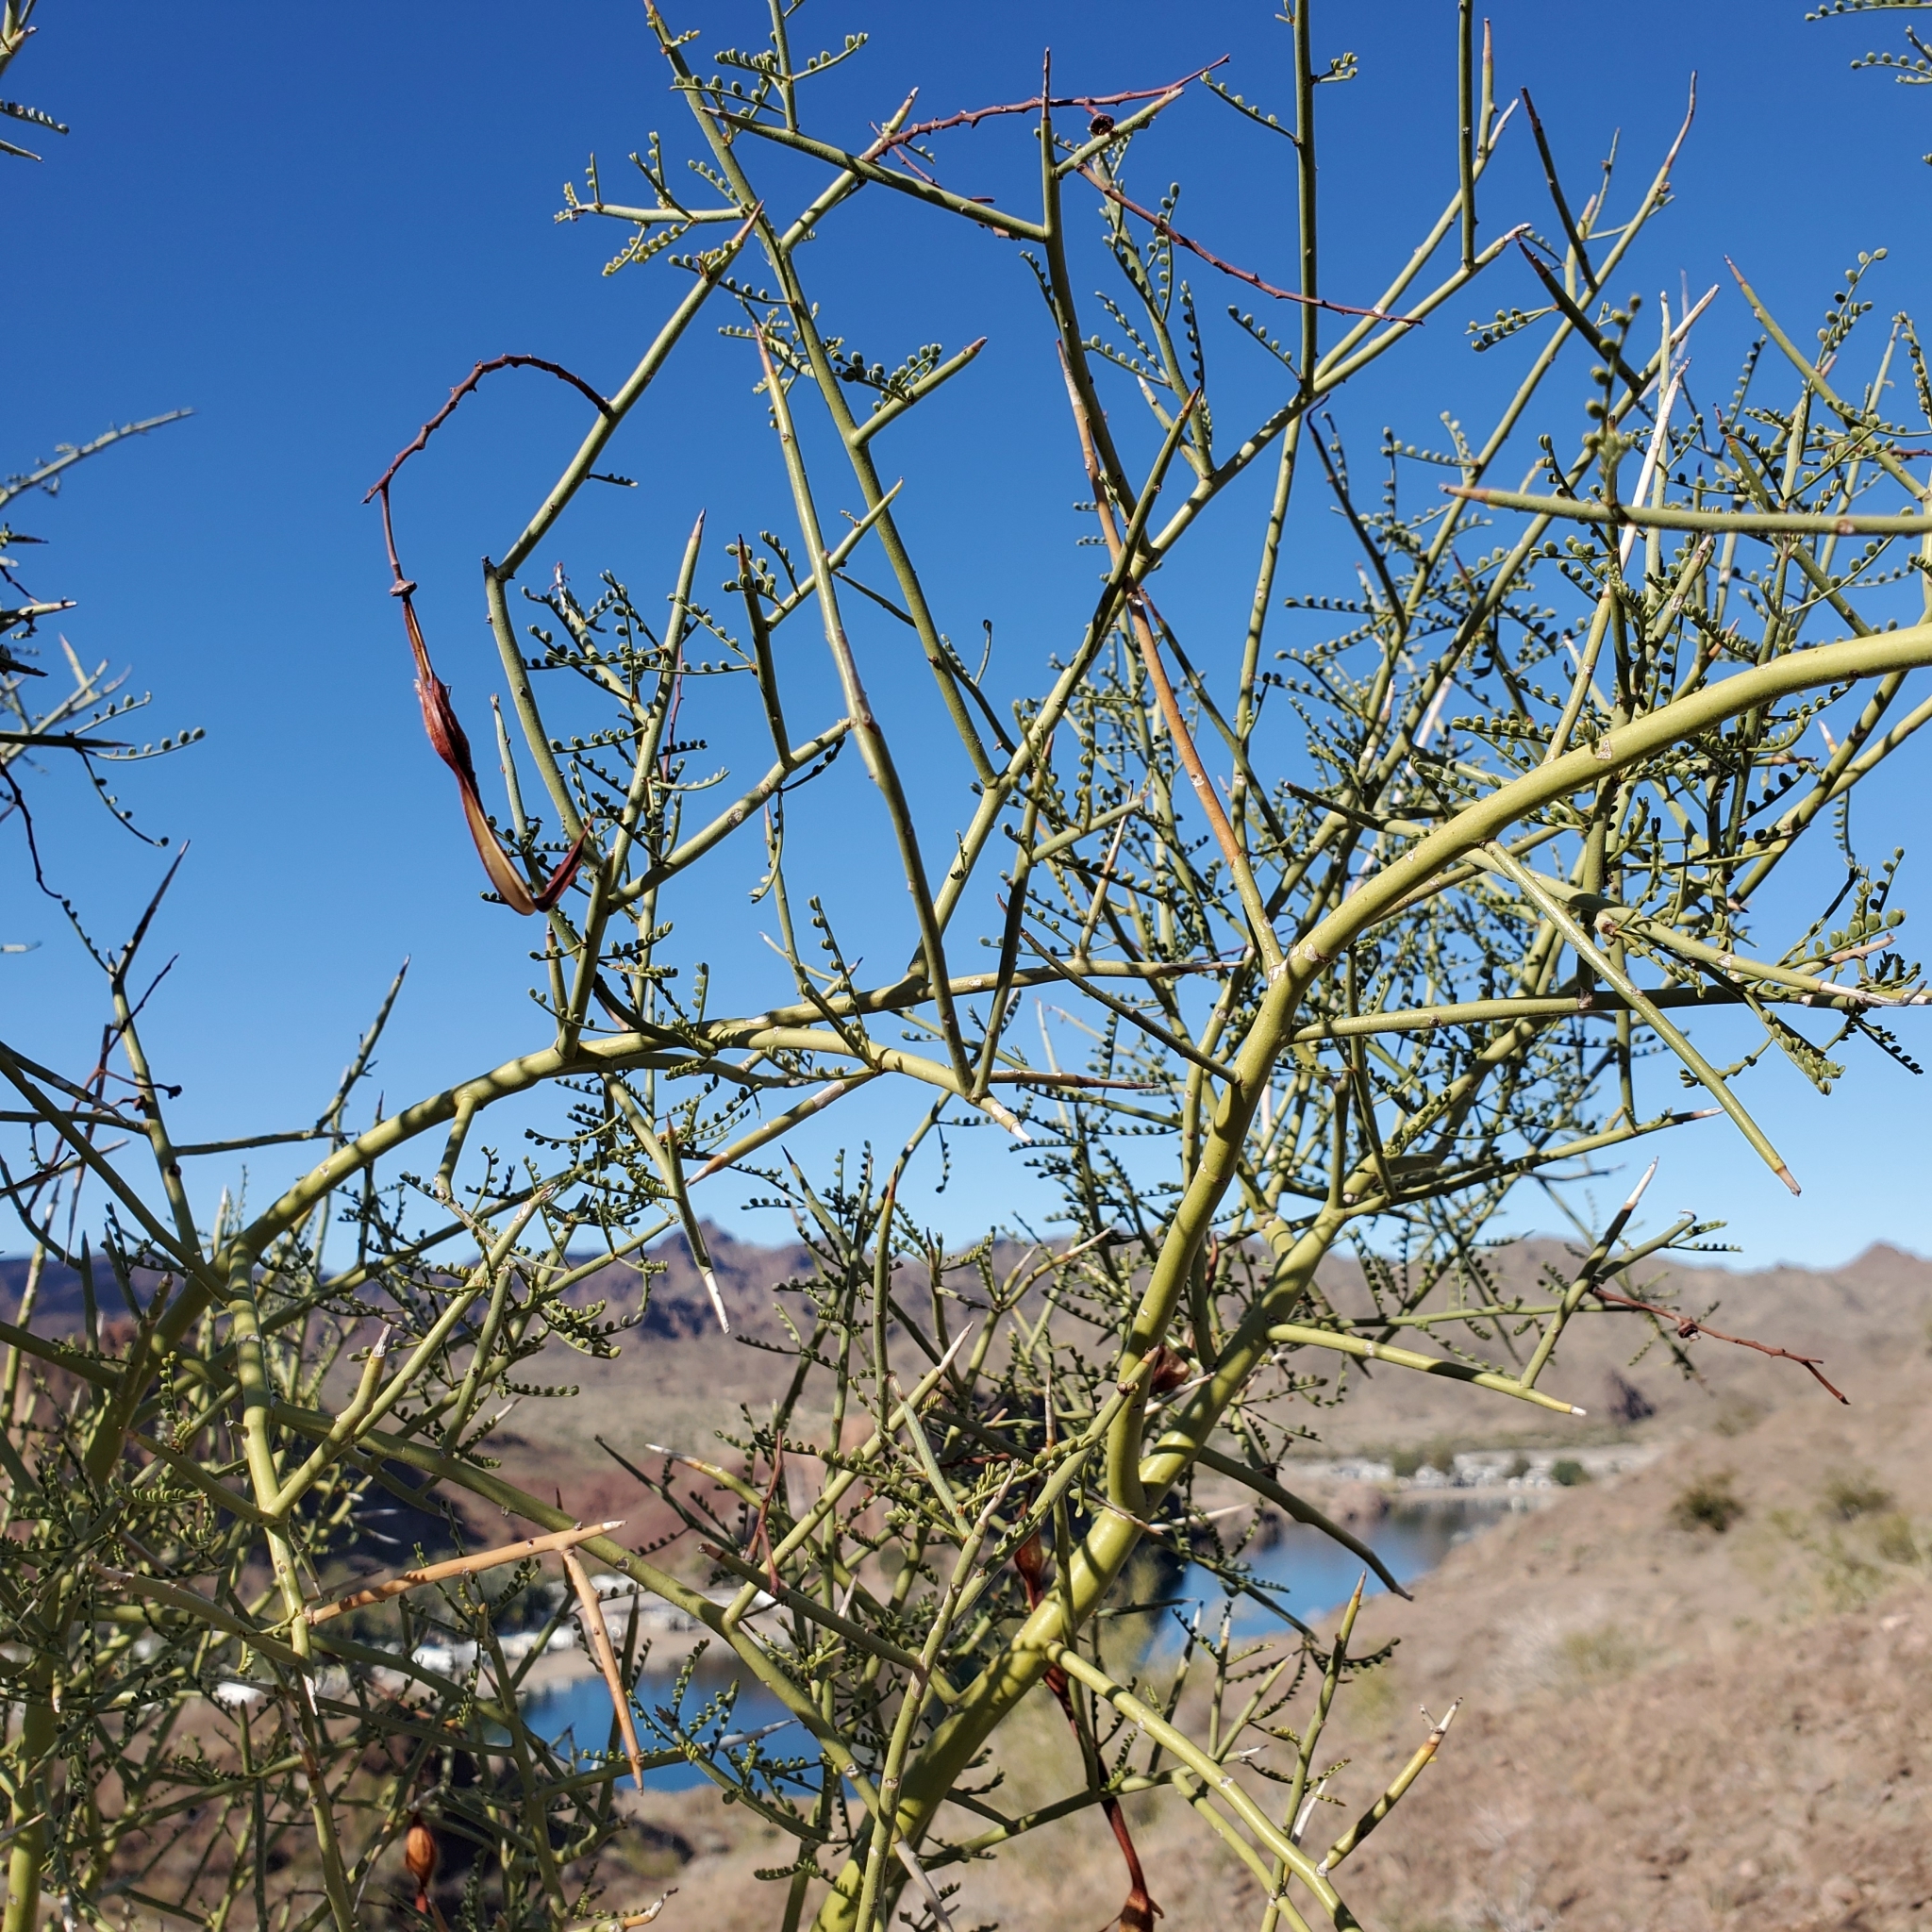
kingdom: Plantae
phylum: Tracheophyta
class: Magnoliopsida
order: Fabales
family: Fabaceae
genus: Parkinsonia
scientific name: Parkinsonia microphylla
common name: Yellow paloverde
